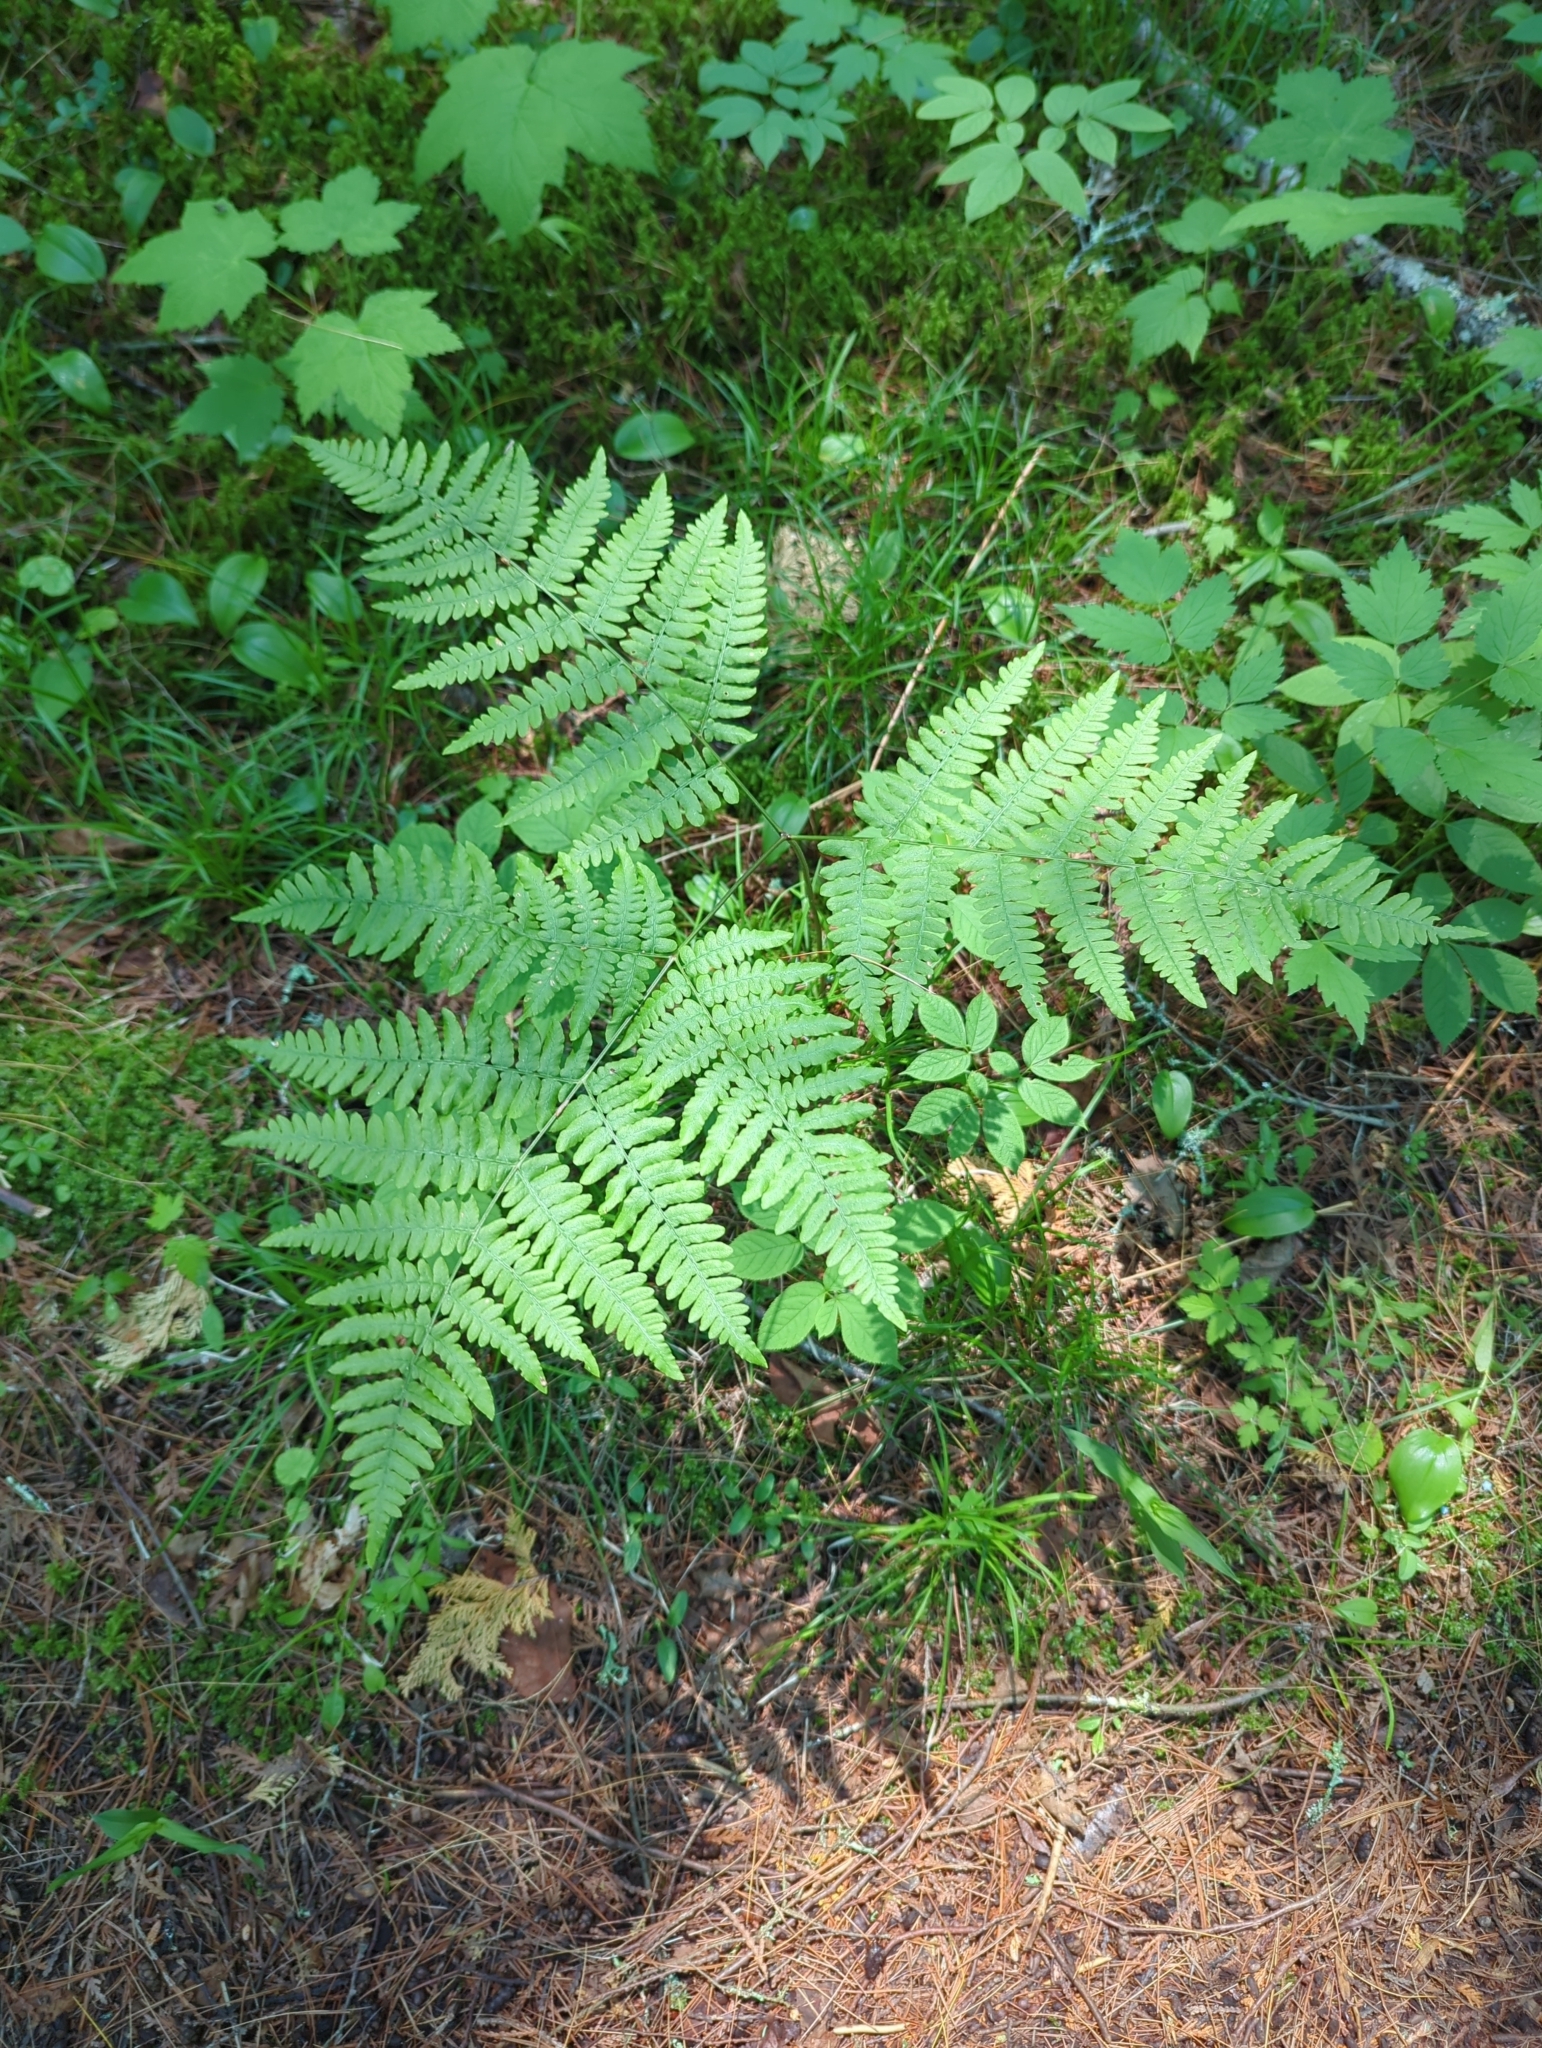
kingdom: Plantae
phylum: Tracheophyta
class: Polypodiopsida
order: Polypodiales
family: Dennstaedtiaceae
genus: Pteridium
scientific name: Pteridium aquilinum
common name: Bracken
